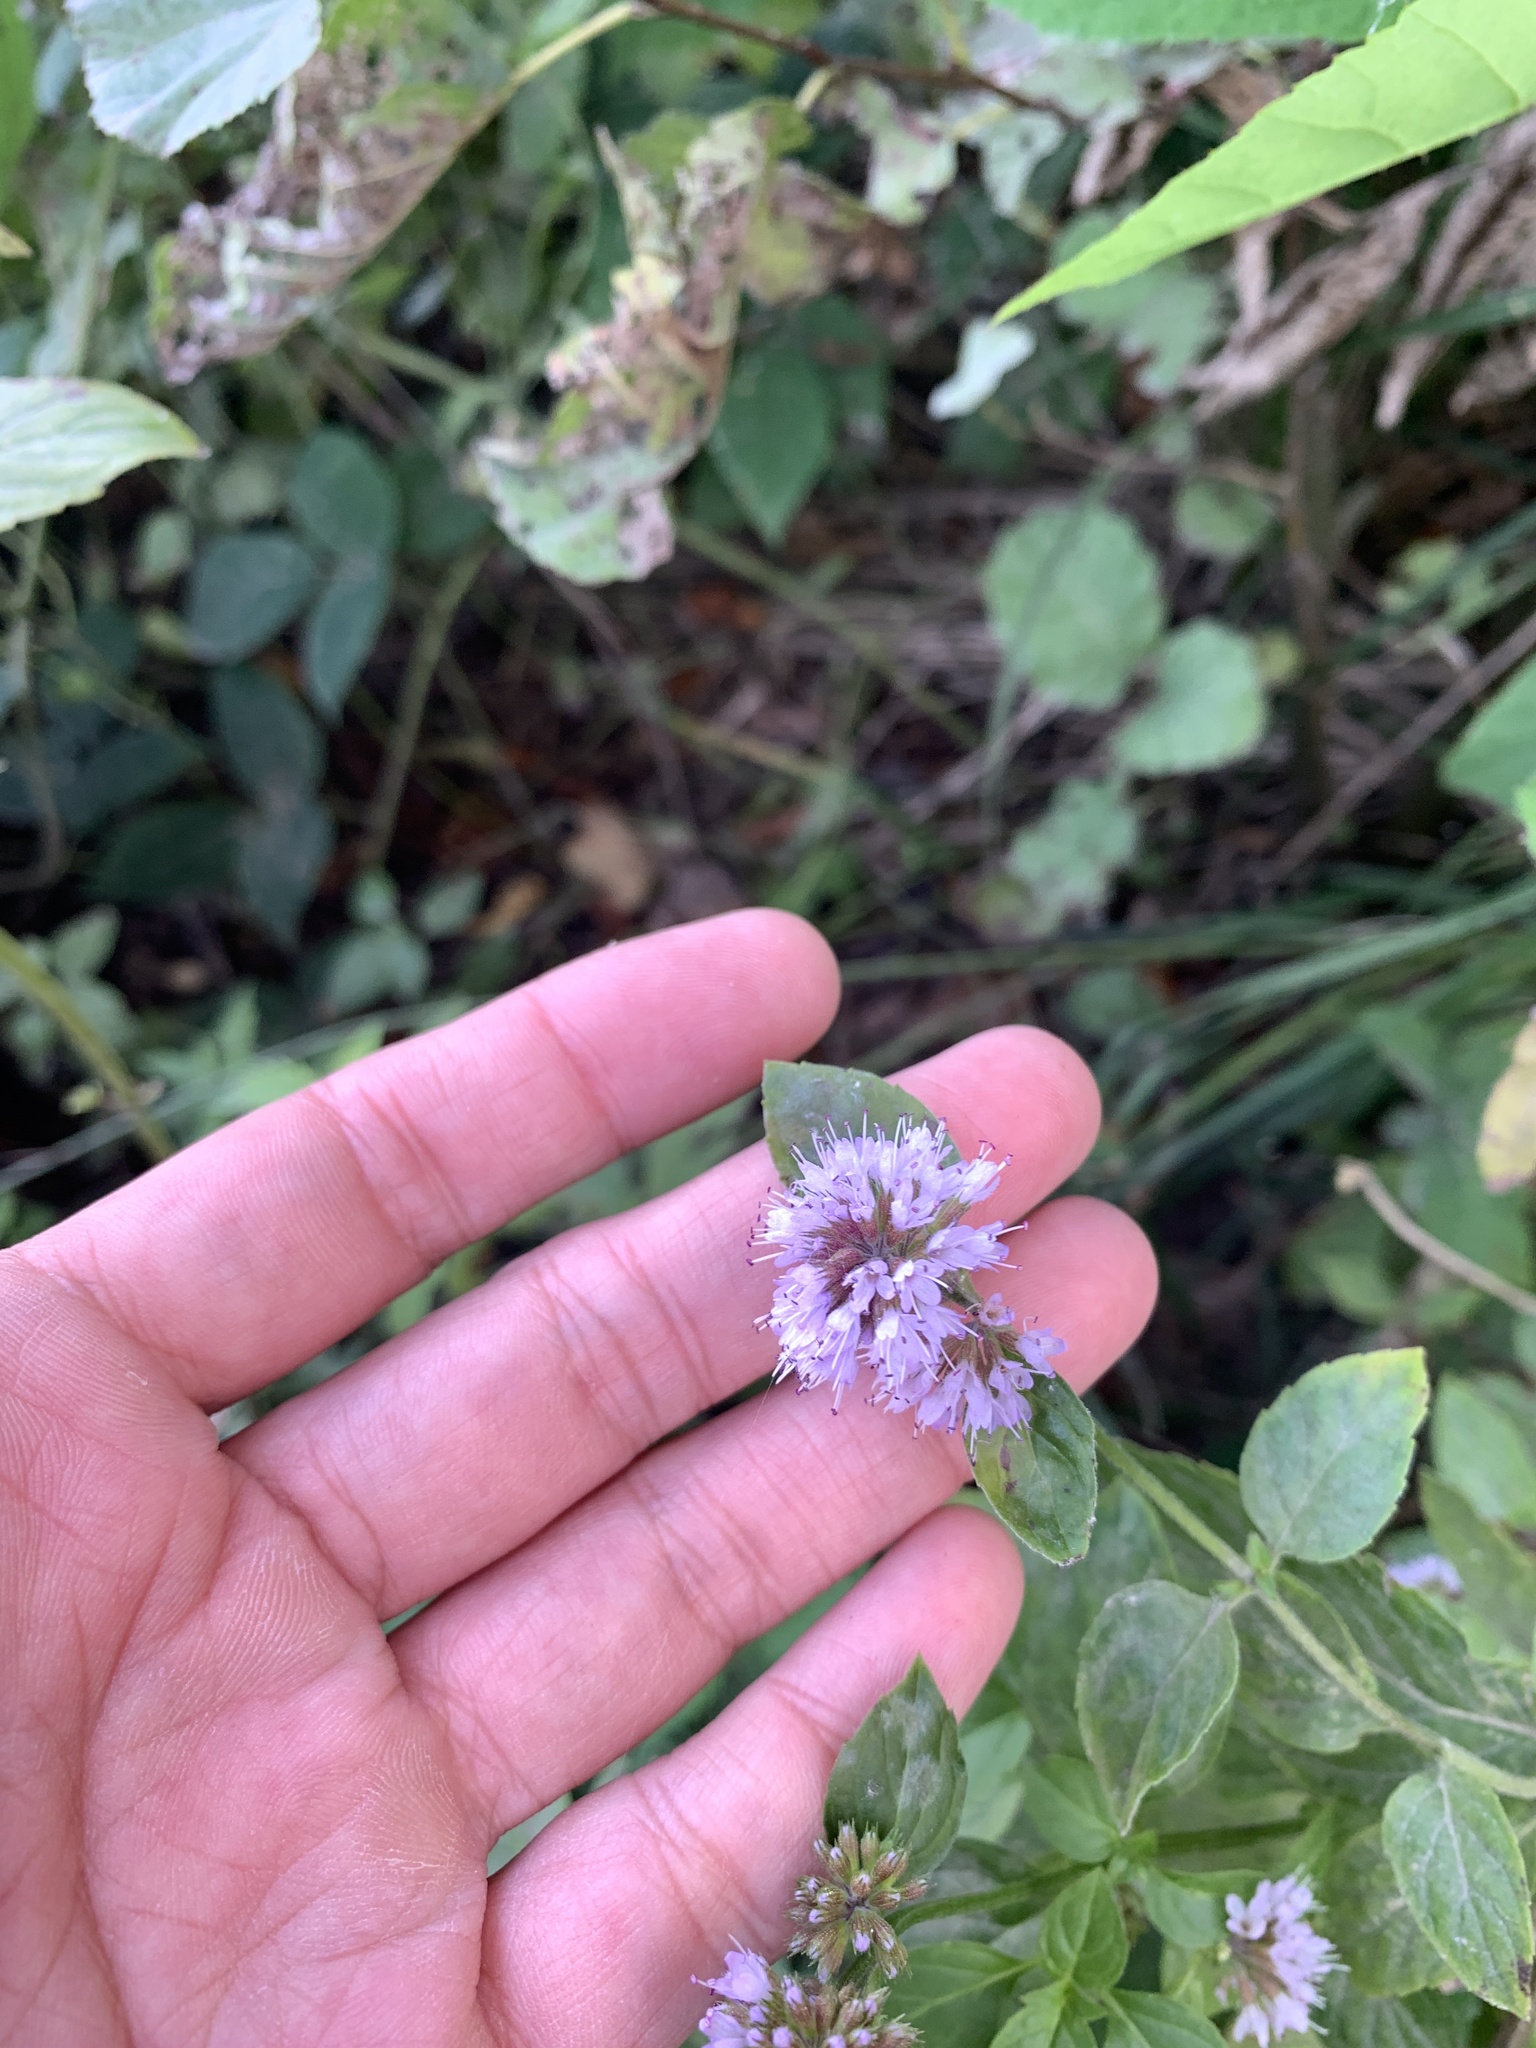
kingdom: Plantae
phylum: Tracheophyta
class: Magnoliopsida
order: Lamiales
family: Lamiaceae
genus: Mentha
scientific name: Mentha aquatica
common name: Water mint
